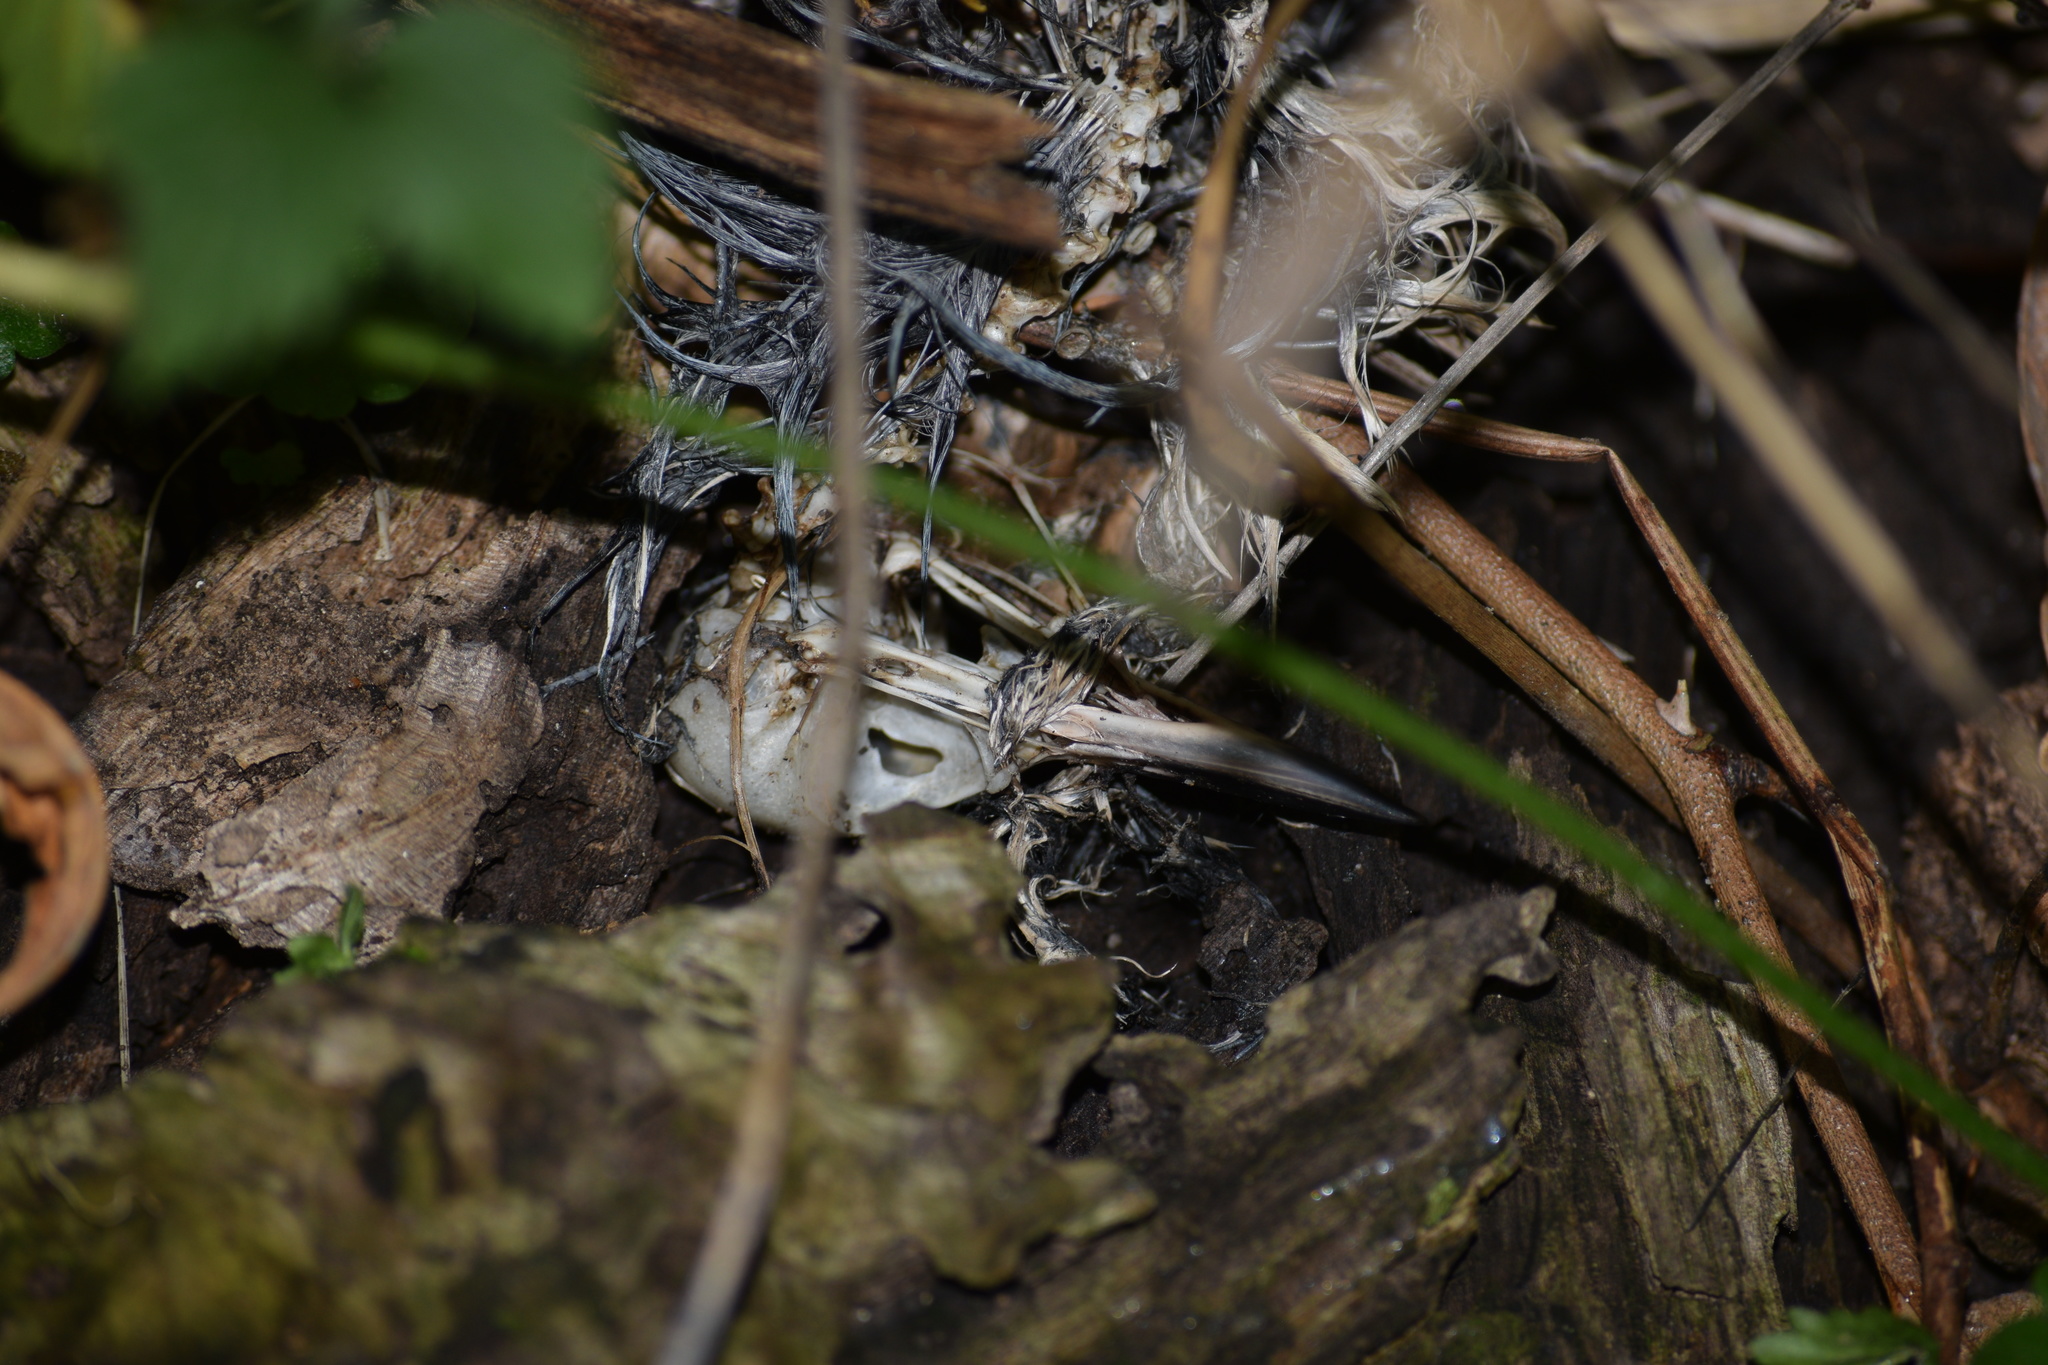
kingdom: Animalia
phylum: Chordata
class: Aves
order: Passeriformes
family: Sittidae
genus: Sitta
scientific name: Sitta canadensis
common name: Red-breasted nuthatch
